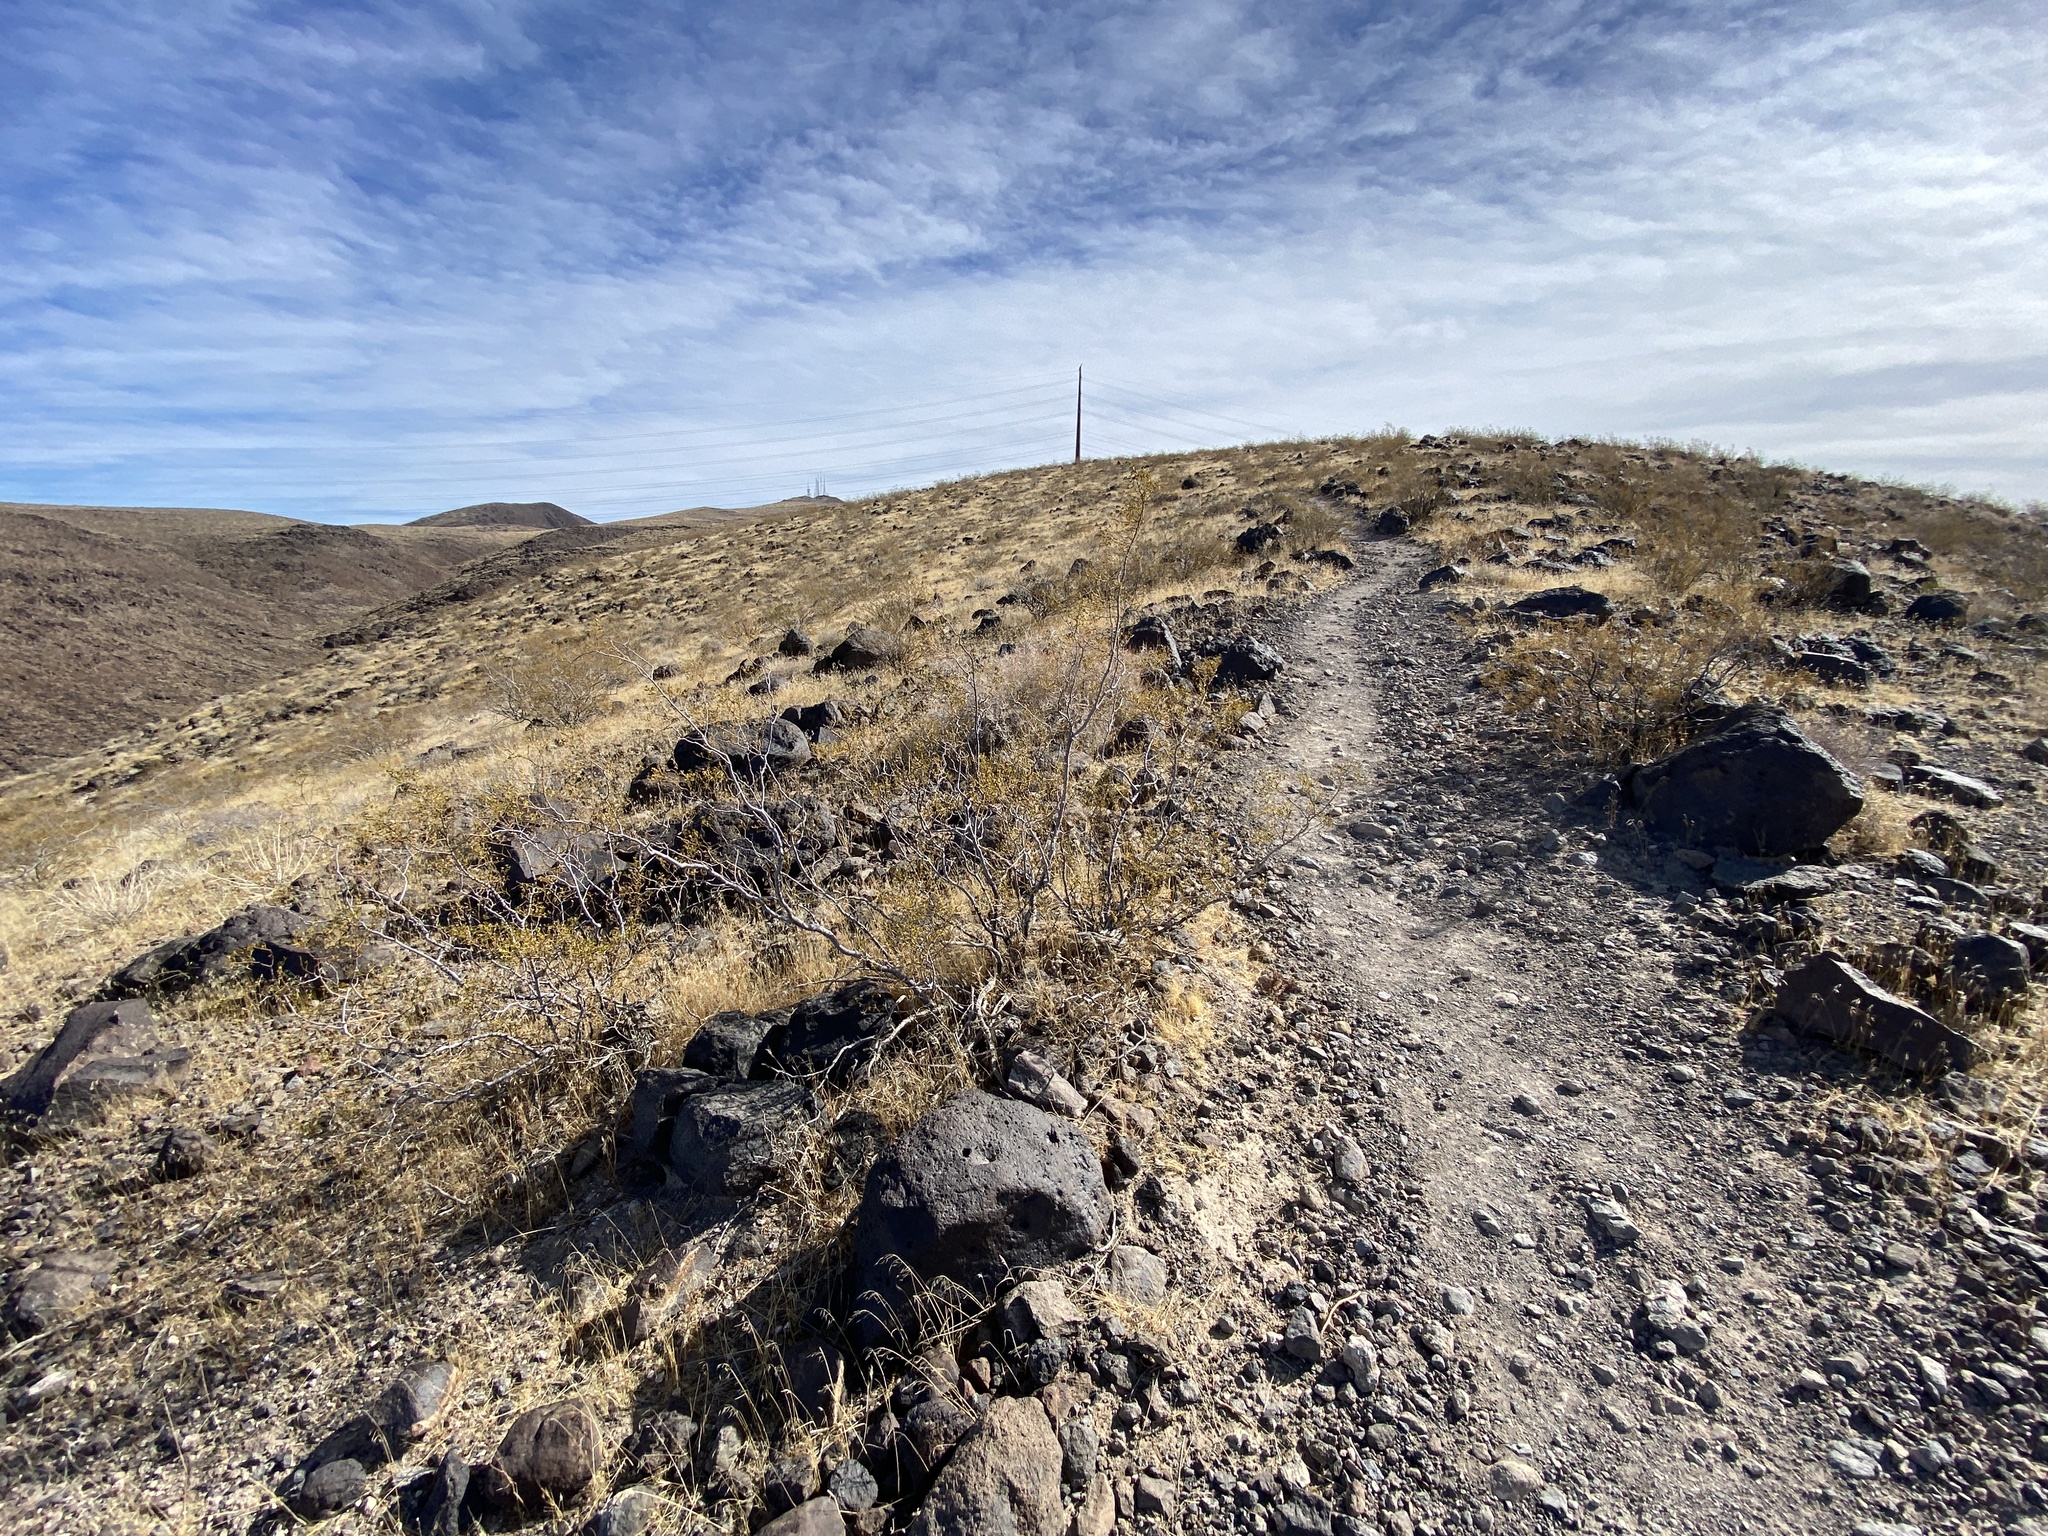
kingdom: Plantae
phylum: Tracheophyta
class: Magnoliopsida
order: Zygophyllales
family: Zygophyllaceae
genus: Larrea
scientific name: Larrea tridentata
